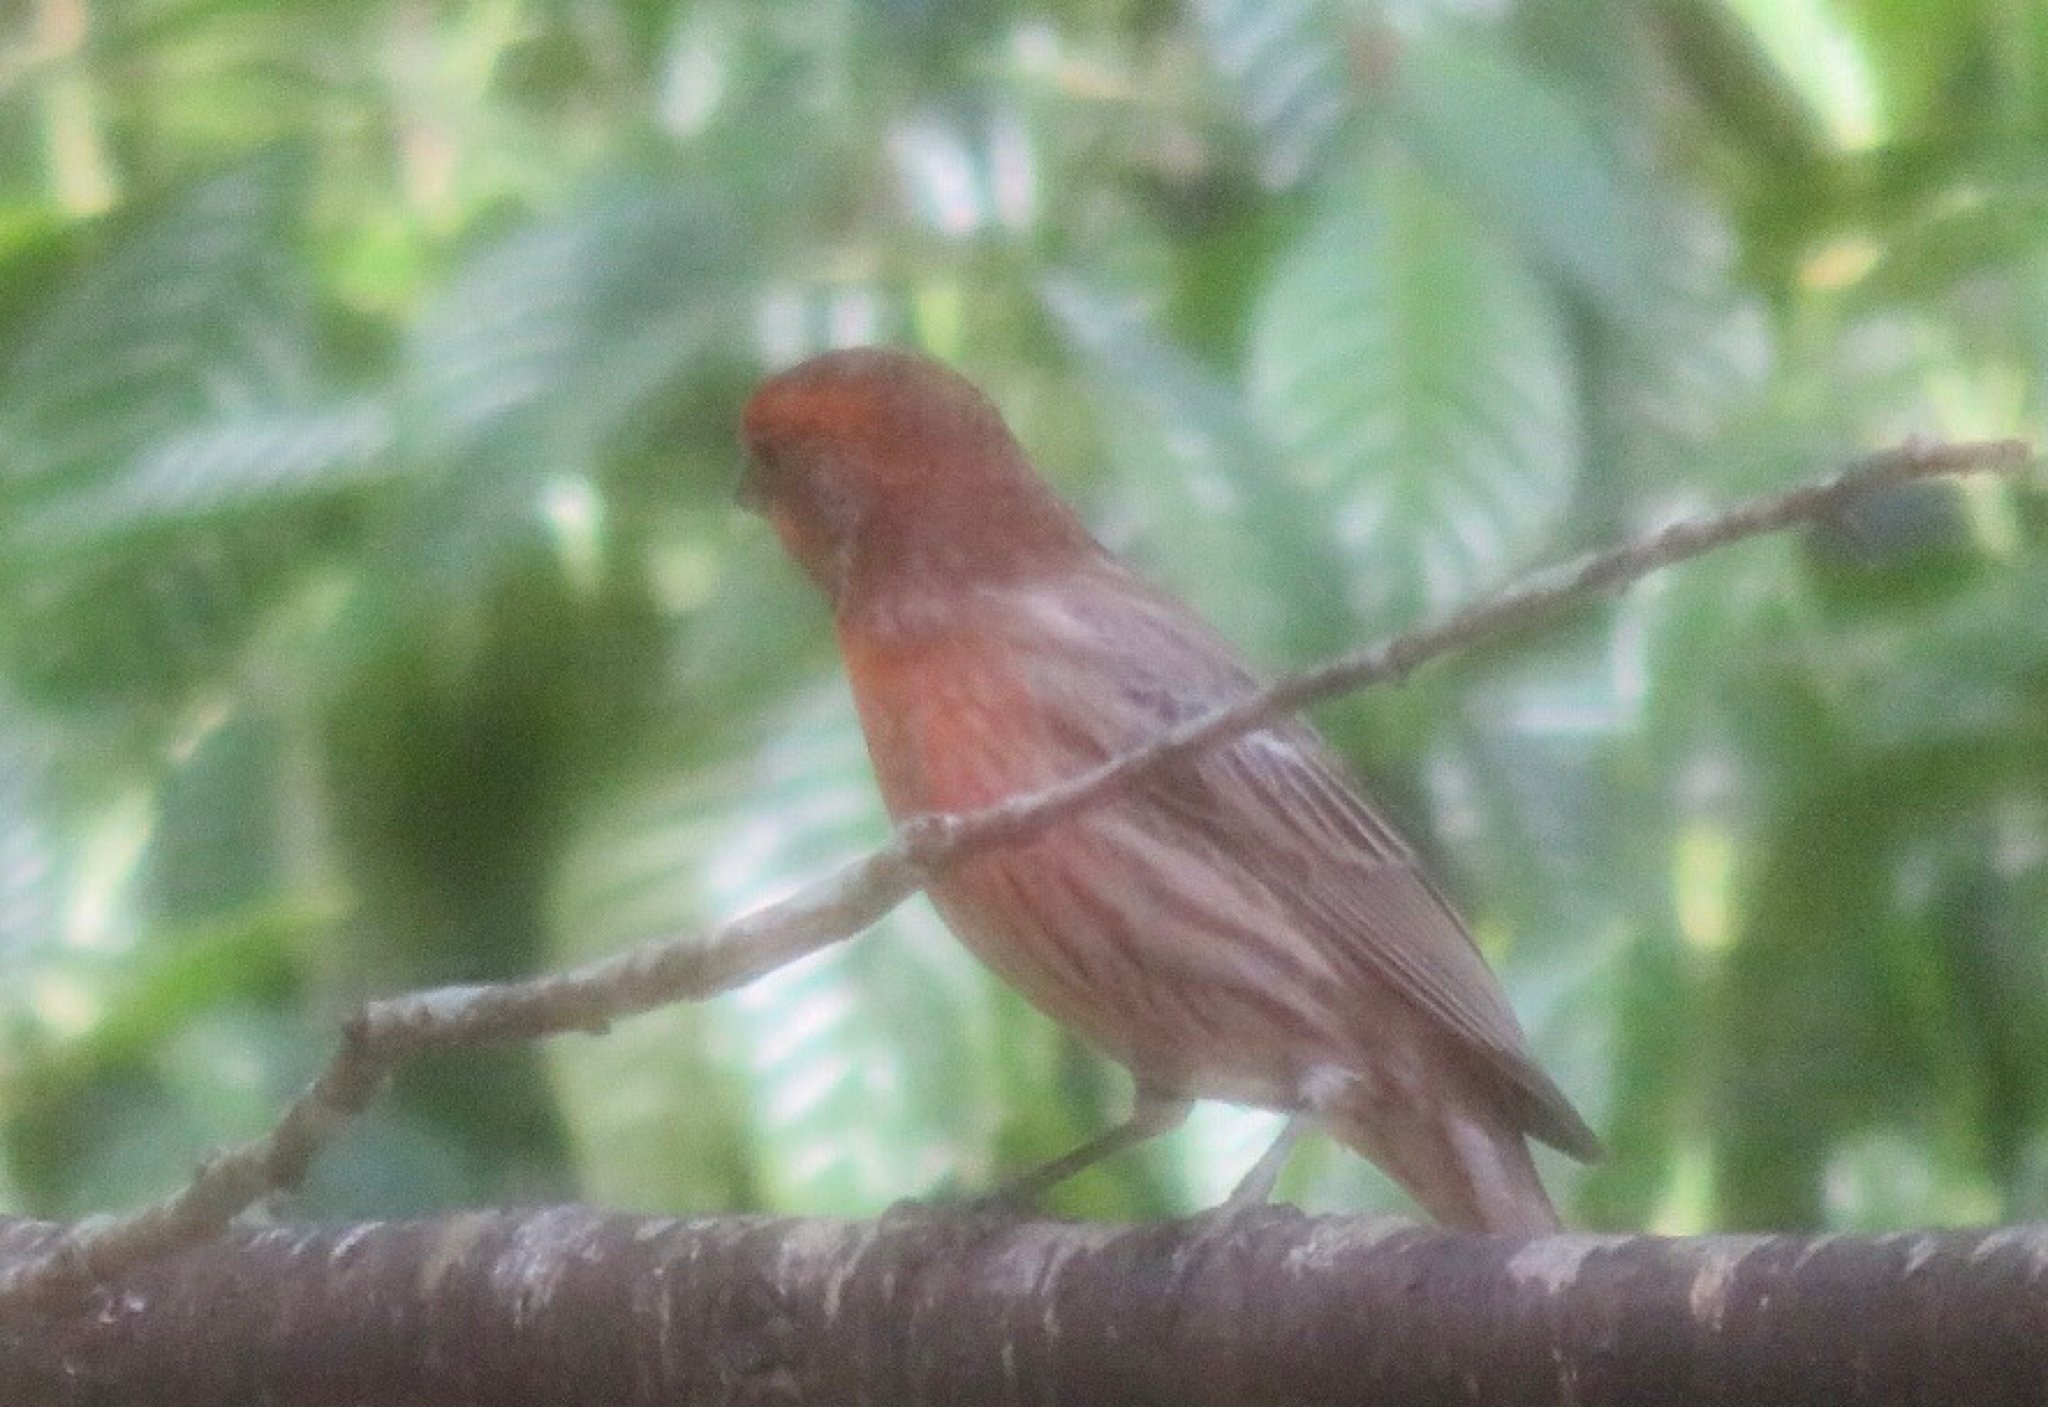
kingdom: Animalia
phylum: Chordata
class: Aves
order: Passeriformes
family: Fringillidae
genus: Haemorhous
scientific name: Haemorhous mexicanus
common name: House finch
